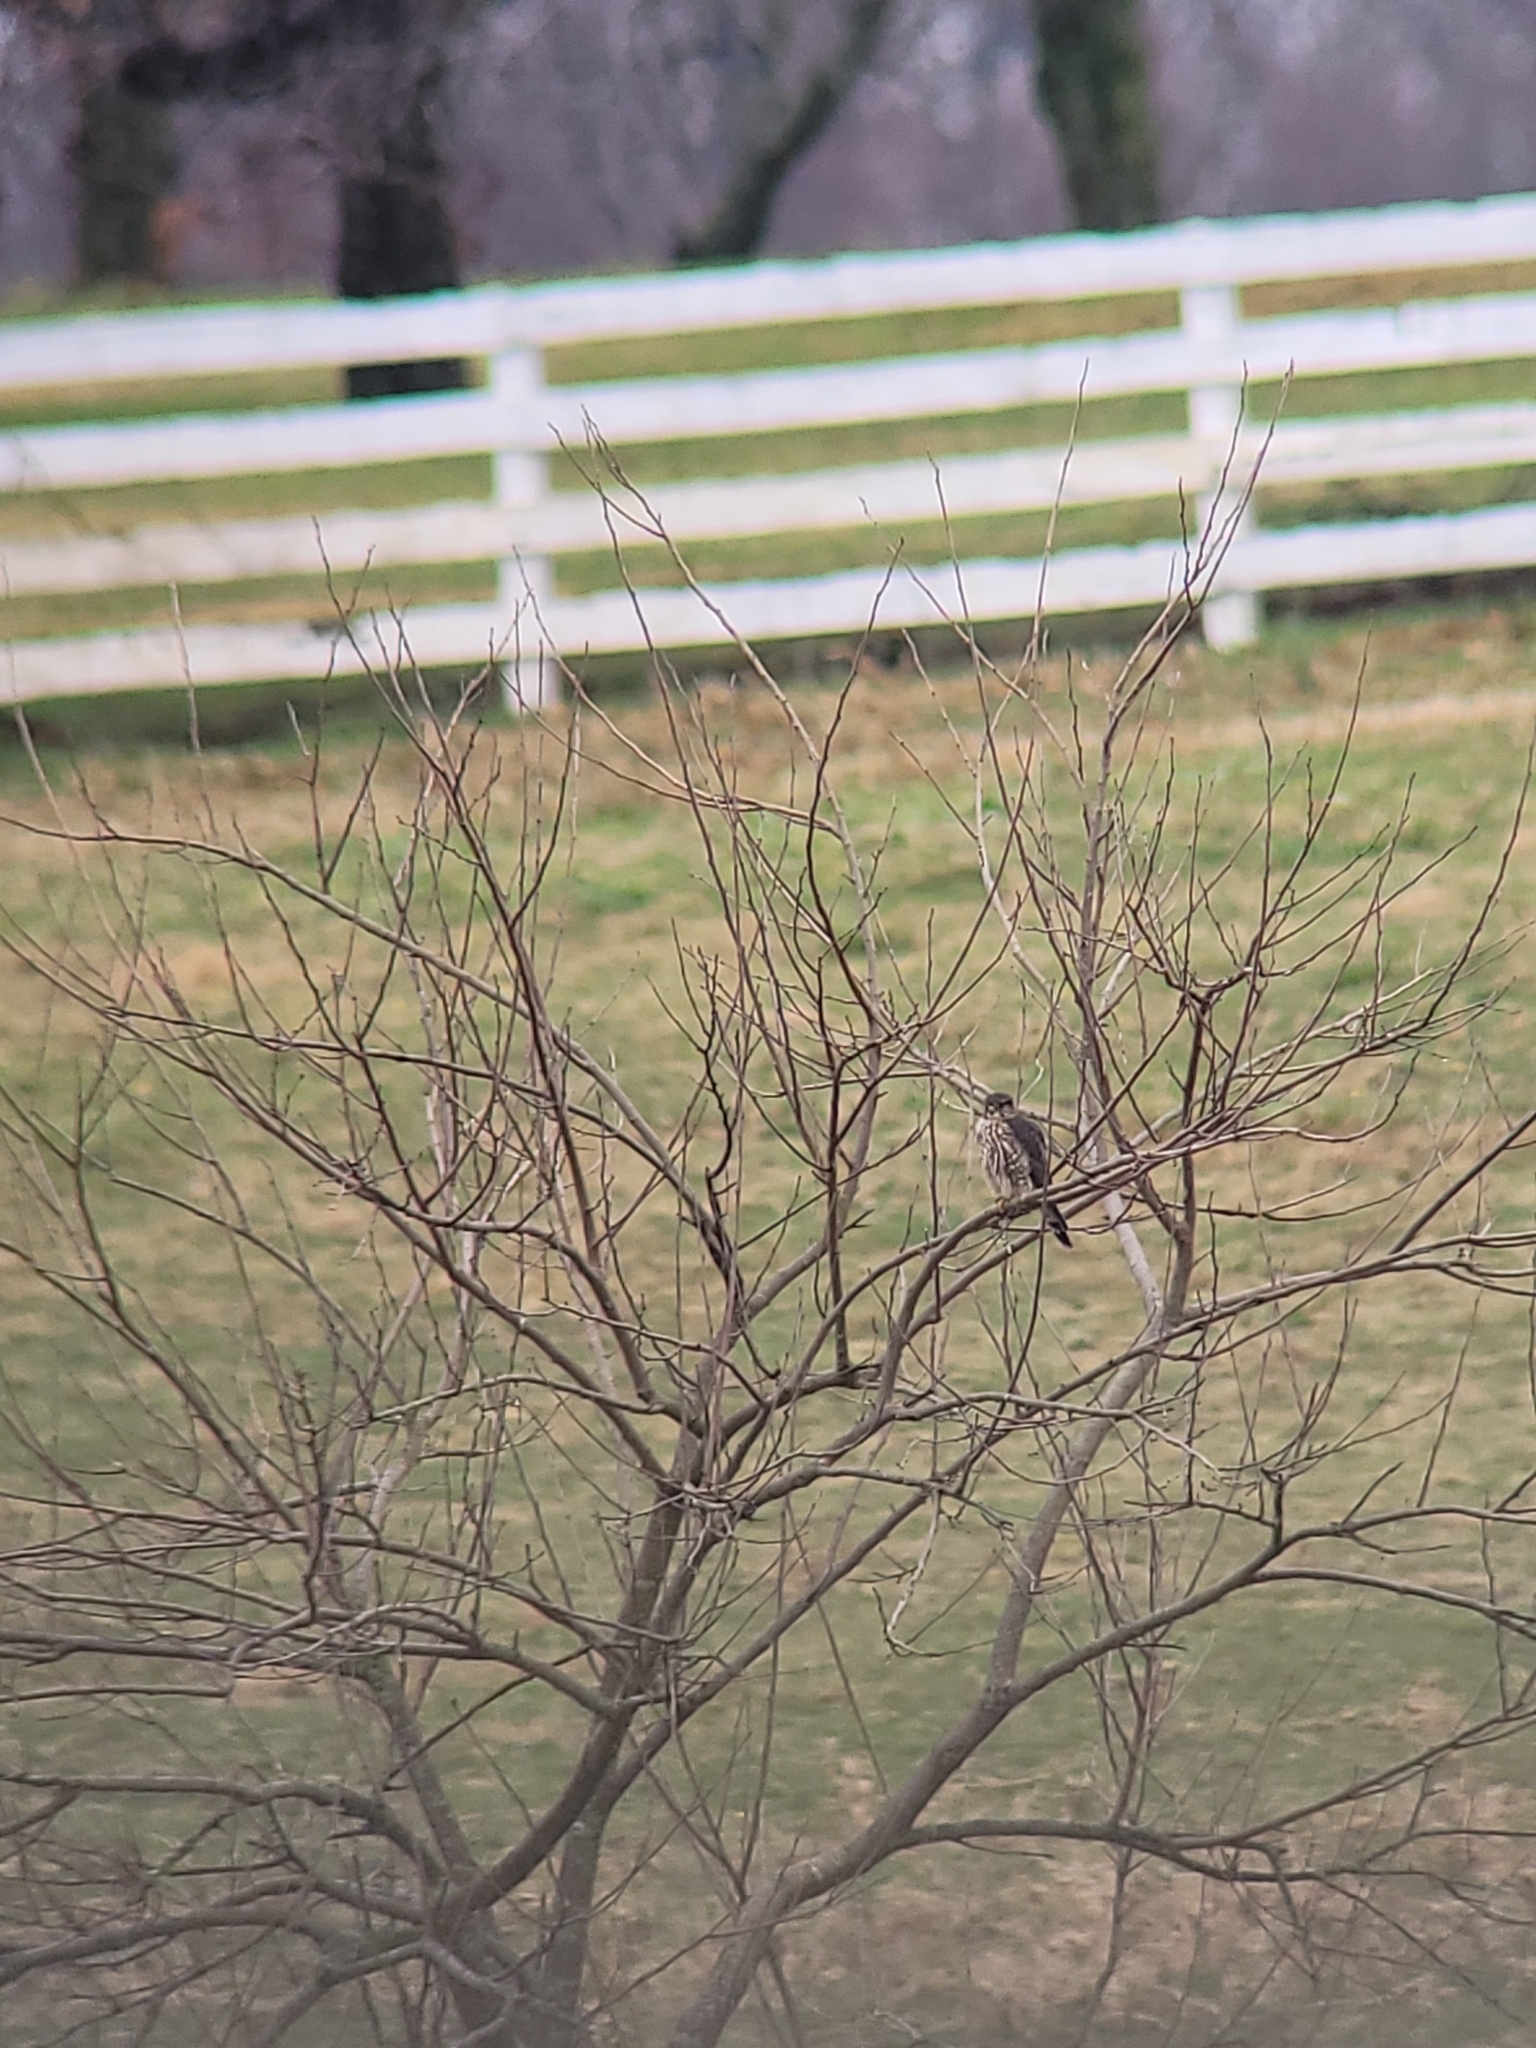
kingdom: Animalia
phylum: Chordata
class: Aves
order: Falconiformes
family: Falconidae
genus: Falco
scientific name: Falco columbarius
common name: Merlin
